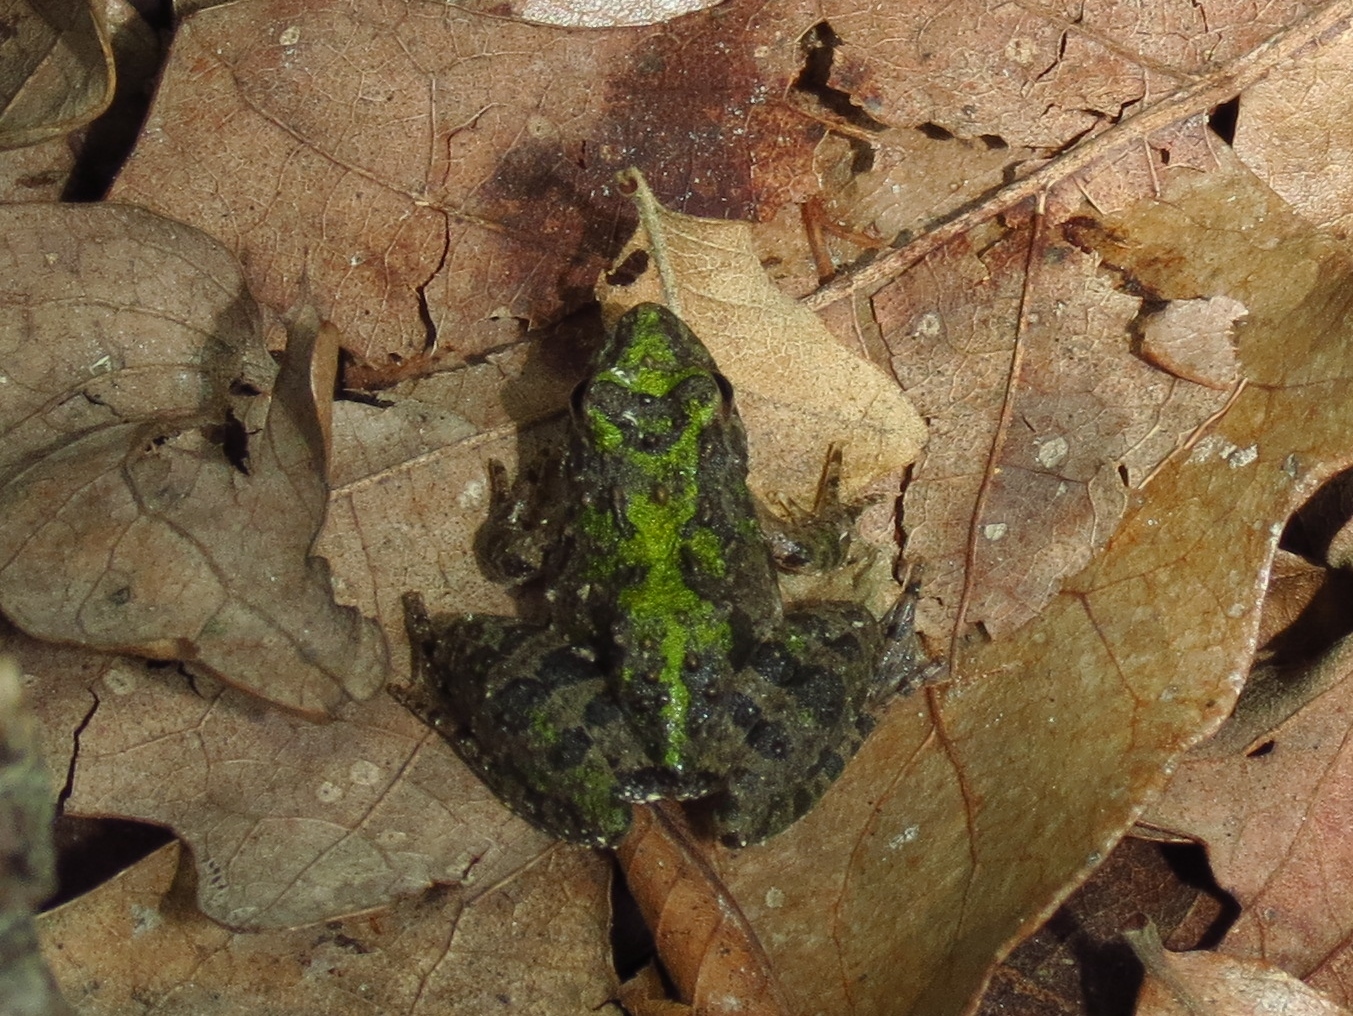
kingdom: Animalia
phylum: Chordata
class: Amphibia
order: Anura
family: Hylidae
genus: Acris
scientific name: Acris blanchardi
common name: Blanchard's cricket frog
